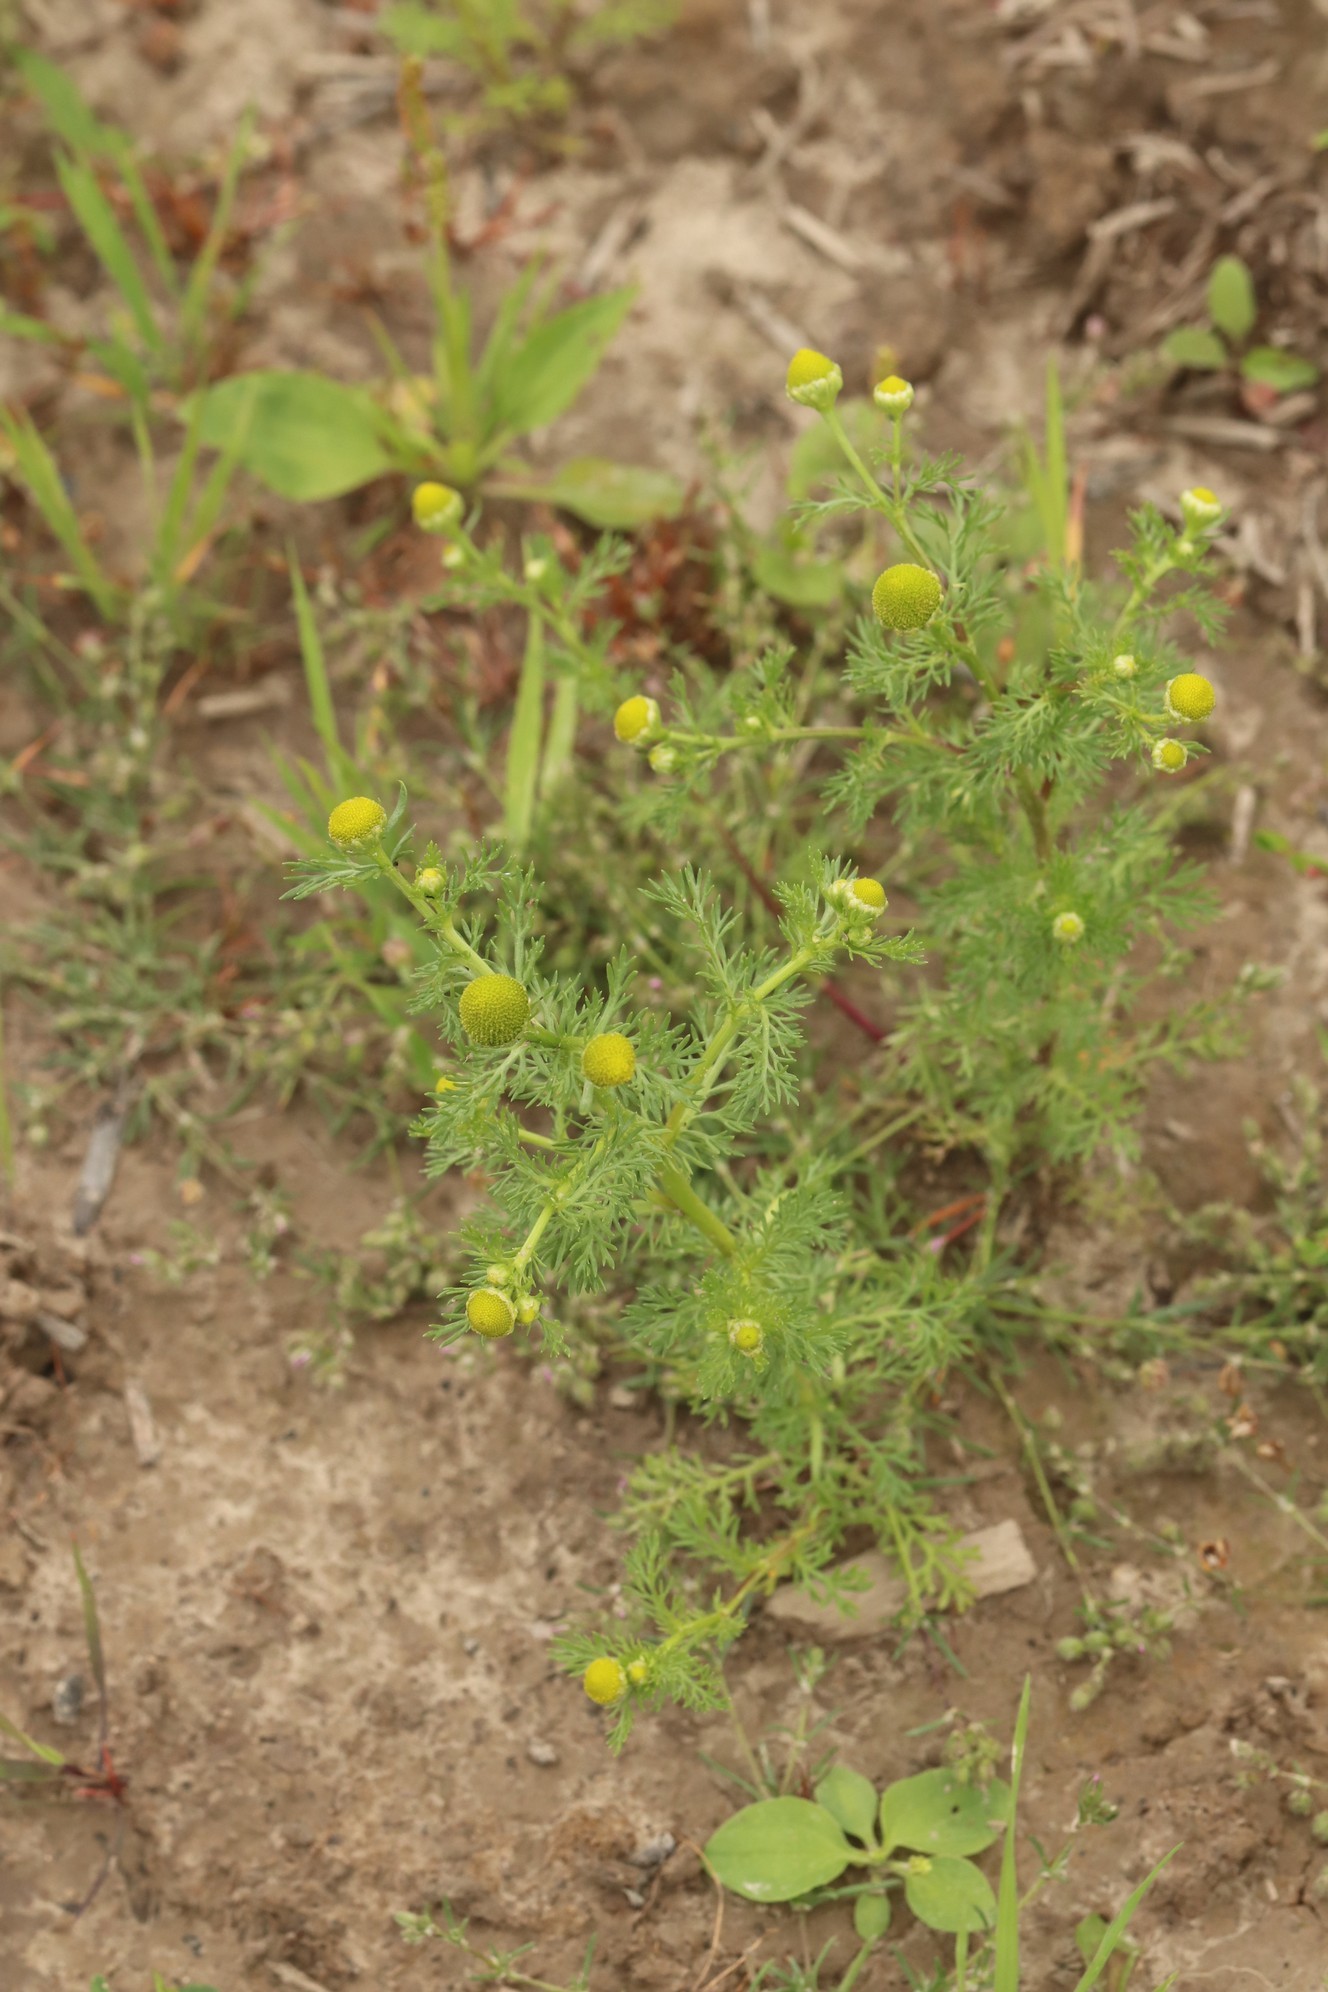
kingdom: Plantae
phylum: Tracheophyta
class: Magnoliopsida
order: Asterales
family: Asteraceae
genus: Matricaria
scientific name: Matricaria discoidea
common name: Disc mayweed
